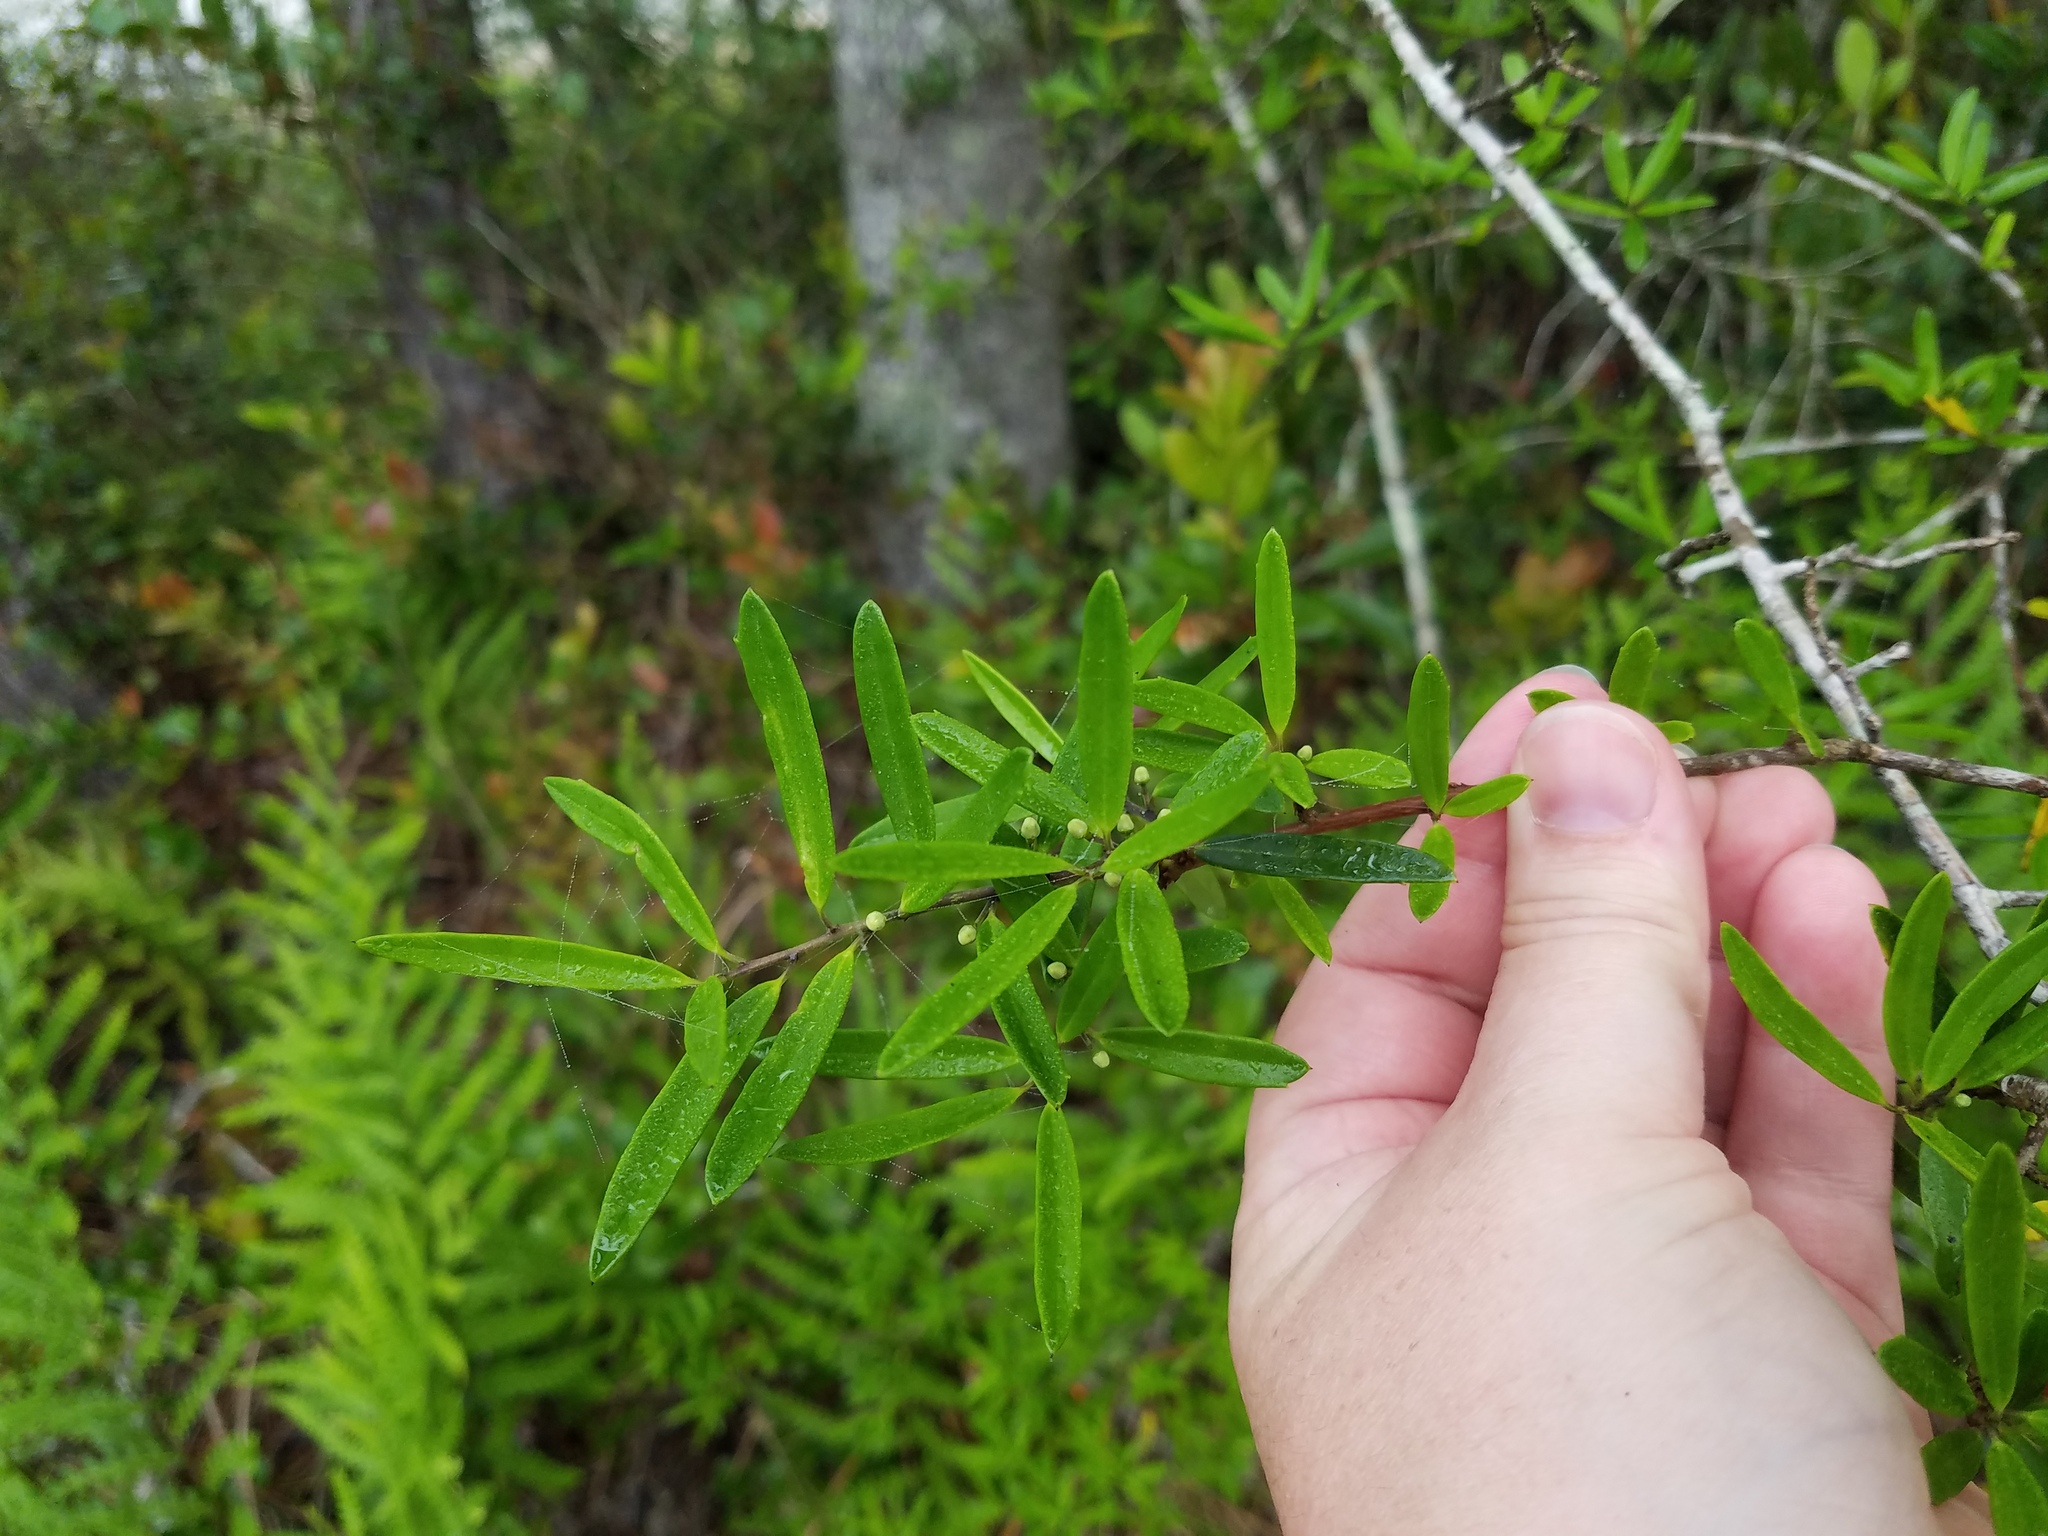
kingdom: Plantae
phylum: Tracheophyta
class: Magnoliopsida
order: Aquifoliales
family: Aquifoliaceae
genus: Ilex
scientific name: Ilex myrtifolia
